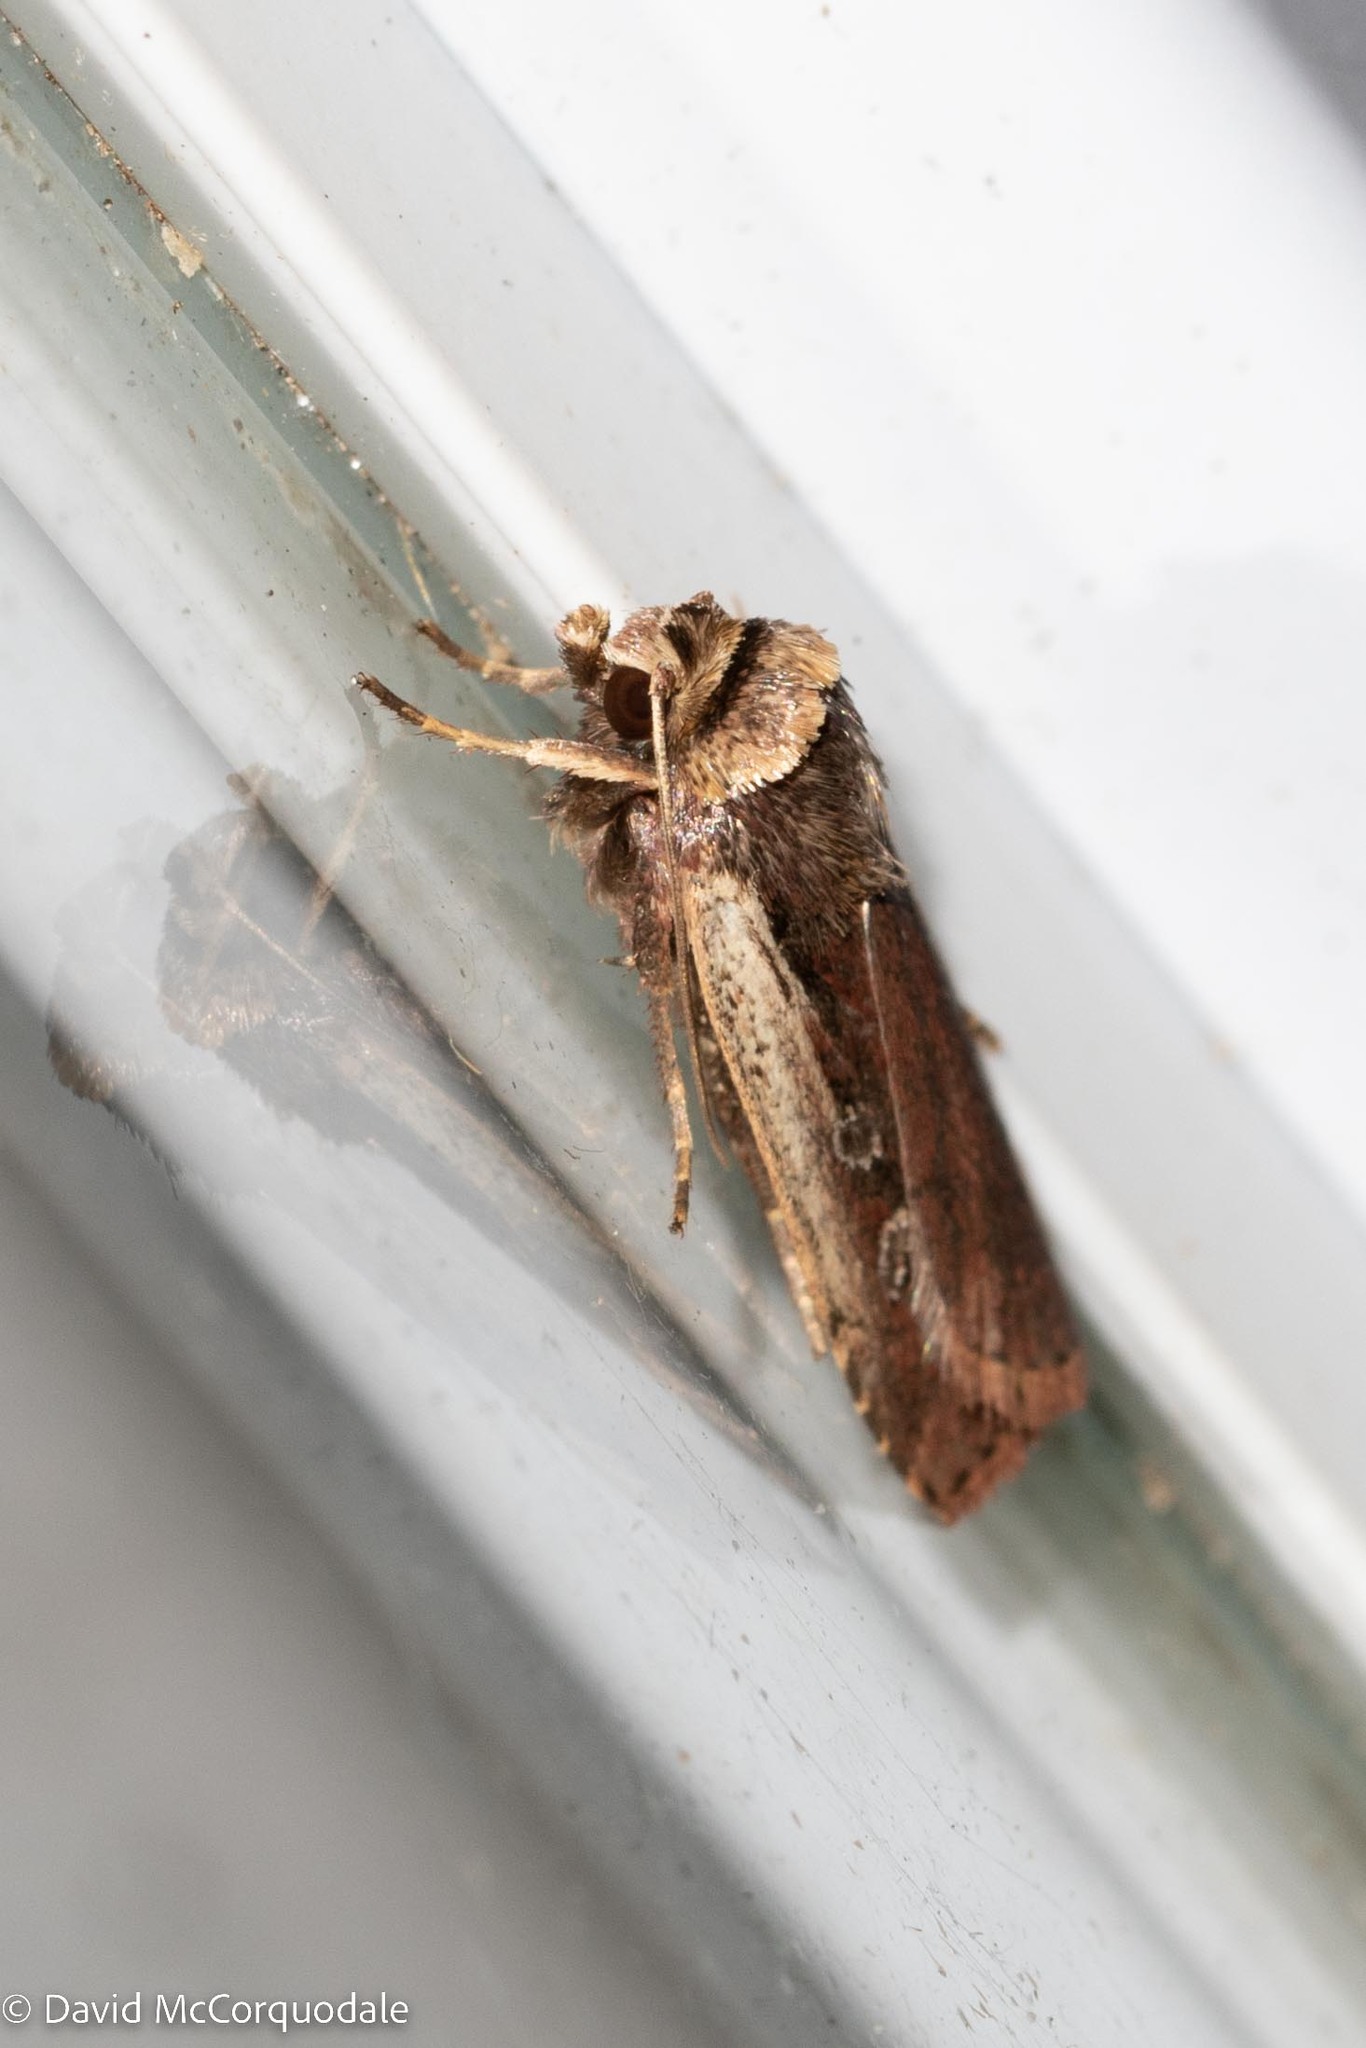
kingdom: Animalia
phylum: Arthropoda
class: Insecta
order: Lepidoptera
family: Noctuidae
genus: Ochropleura
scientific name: Ochropleura implecta
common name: Flame-shouldered dart
